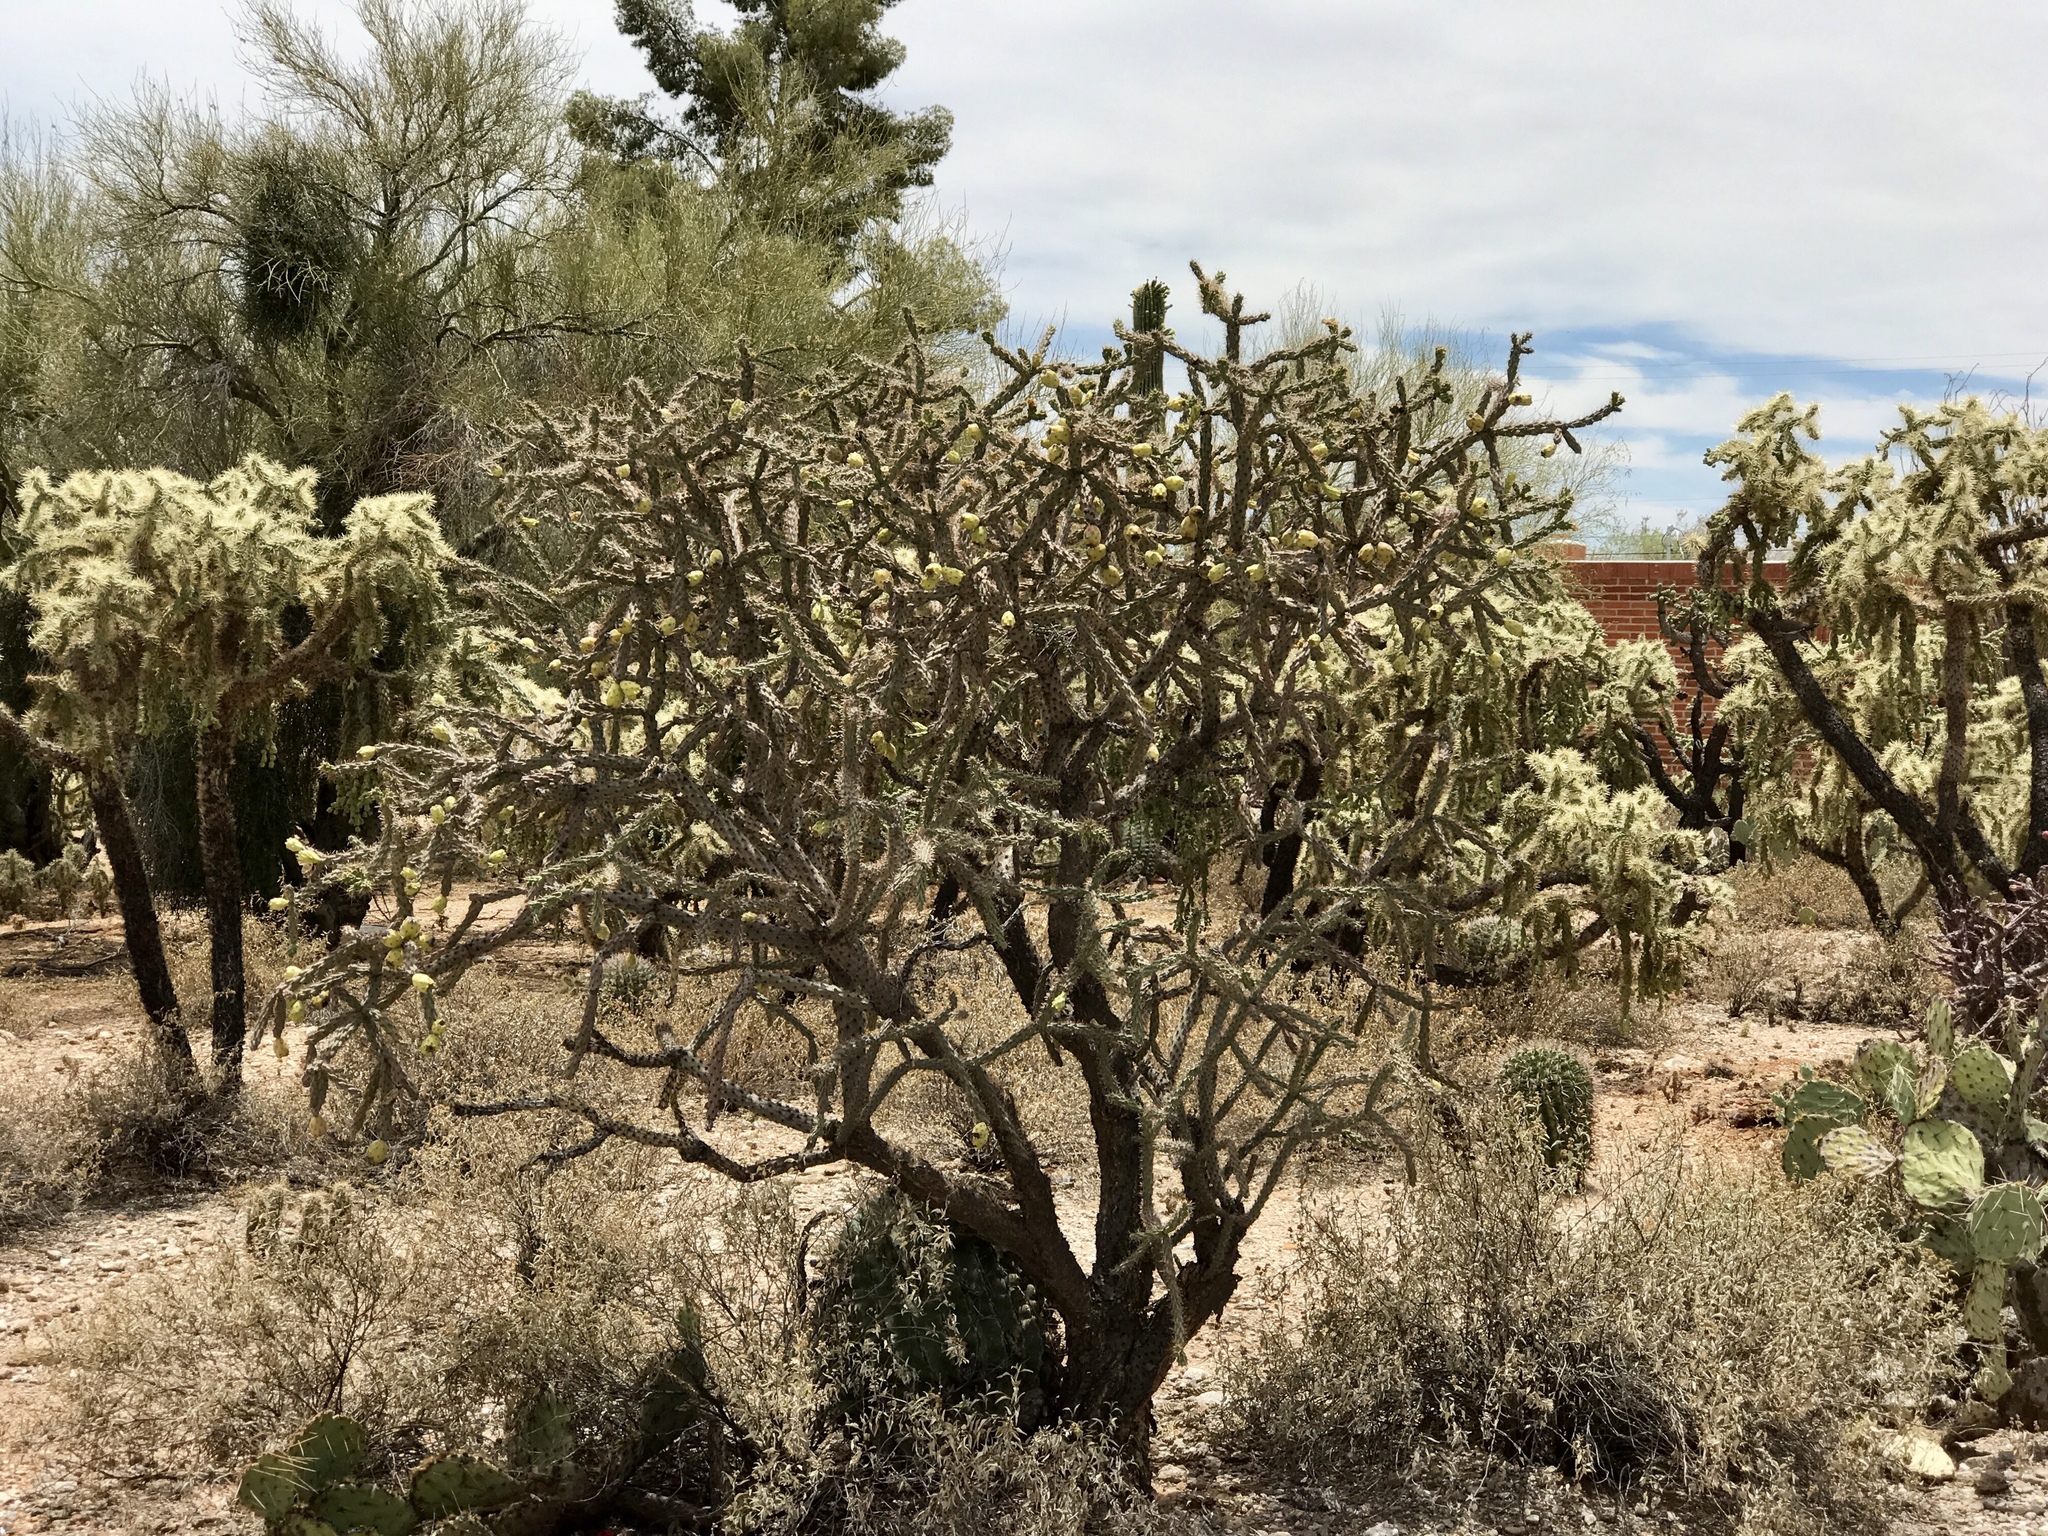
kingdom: Plantae
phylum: Tracheophyta
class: Magnoliopsida
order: Caryophyllales
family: Cactaceae
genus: Cylindropuntia
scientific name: Cylindropuntia imbricata
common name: Candelabrum cactus
